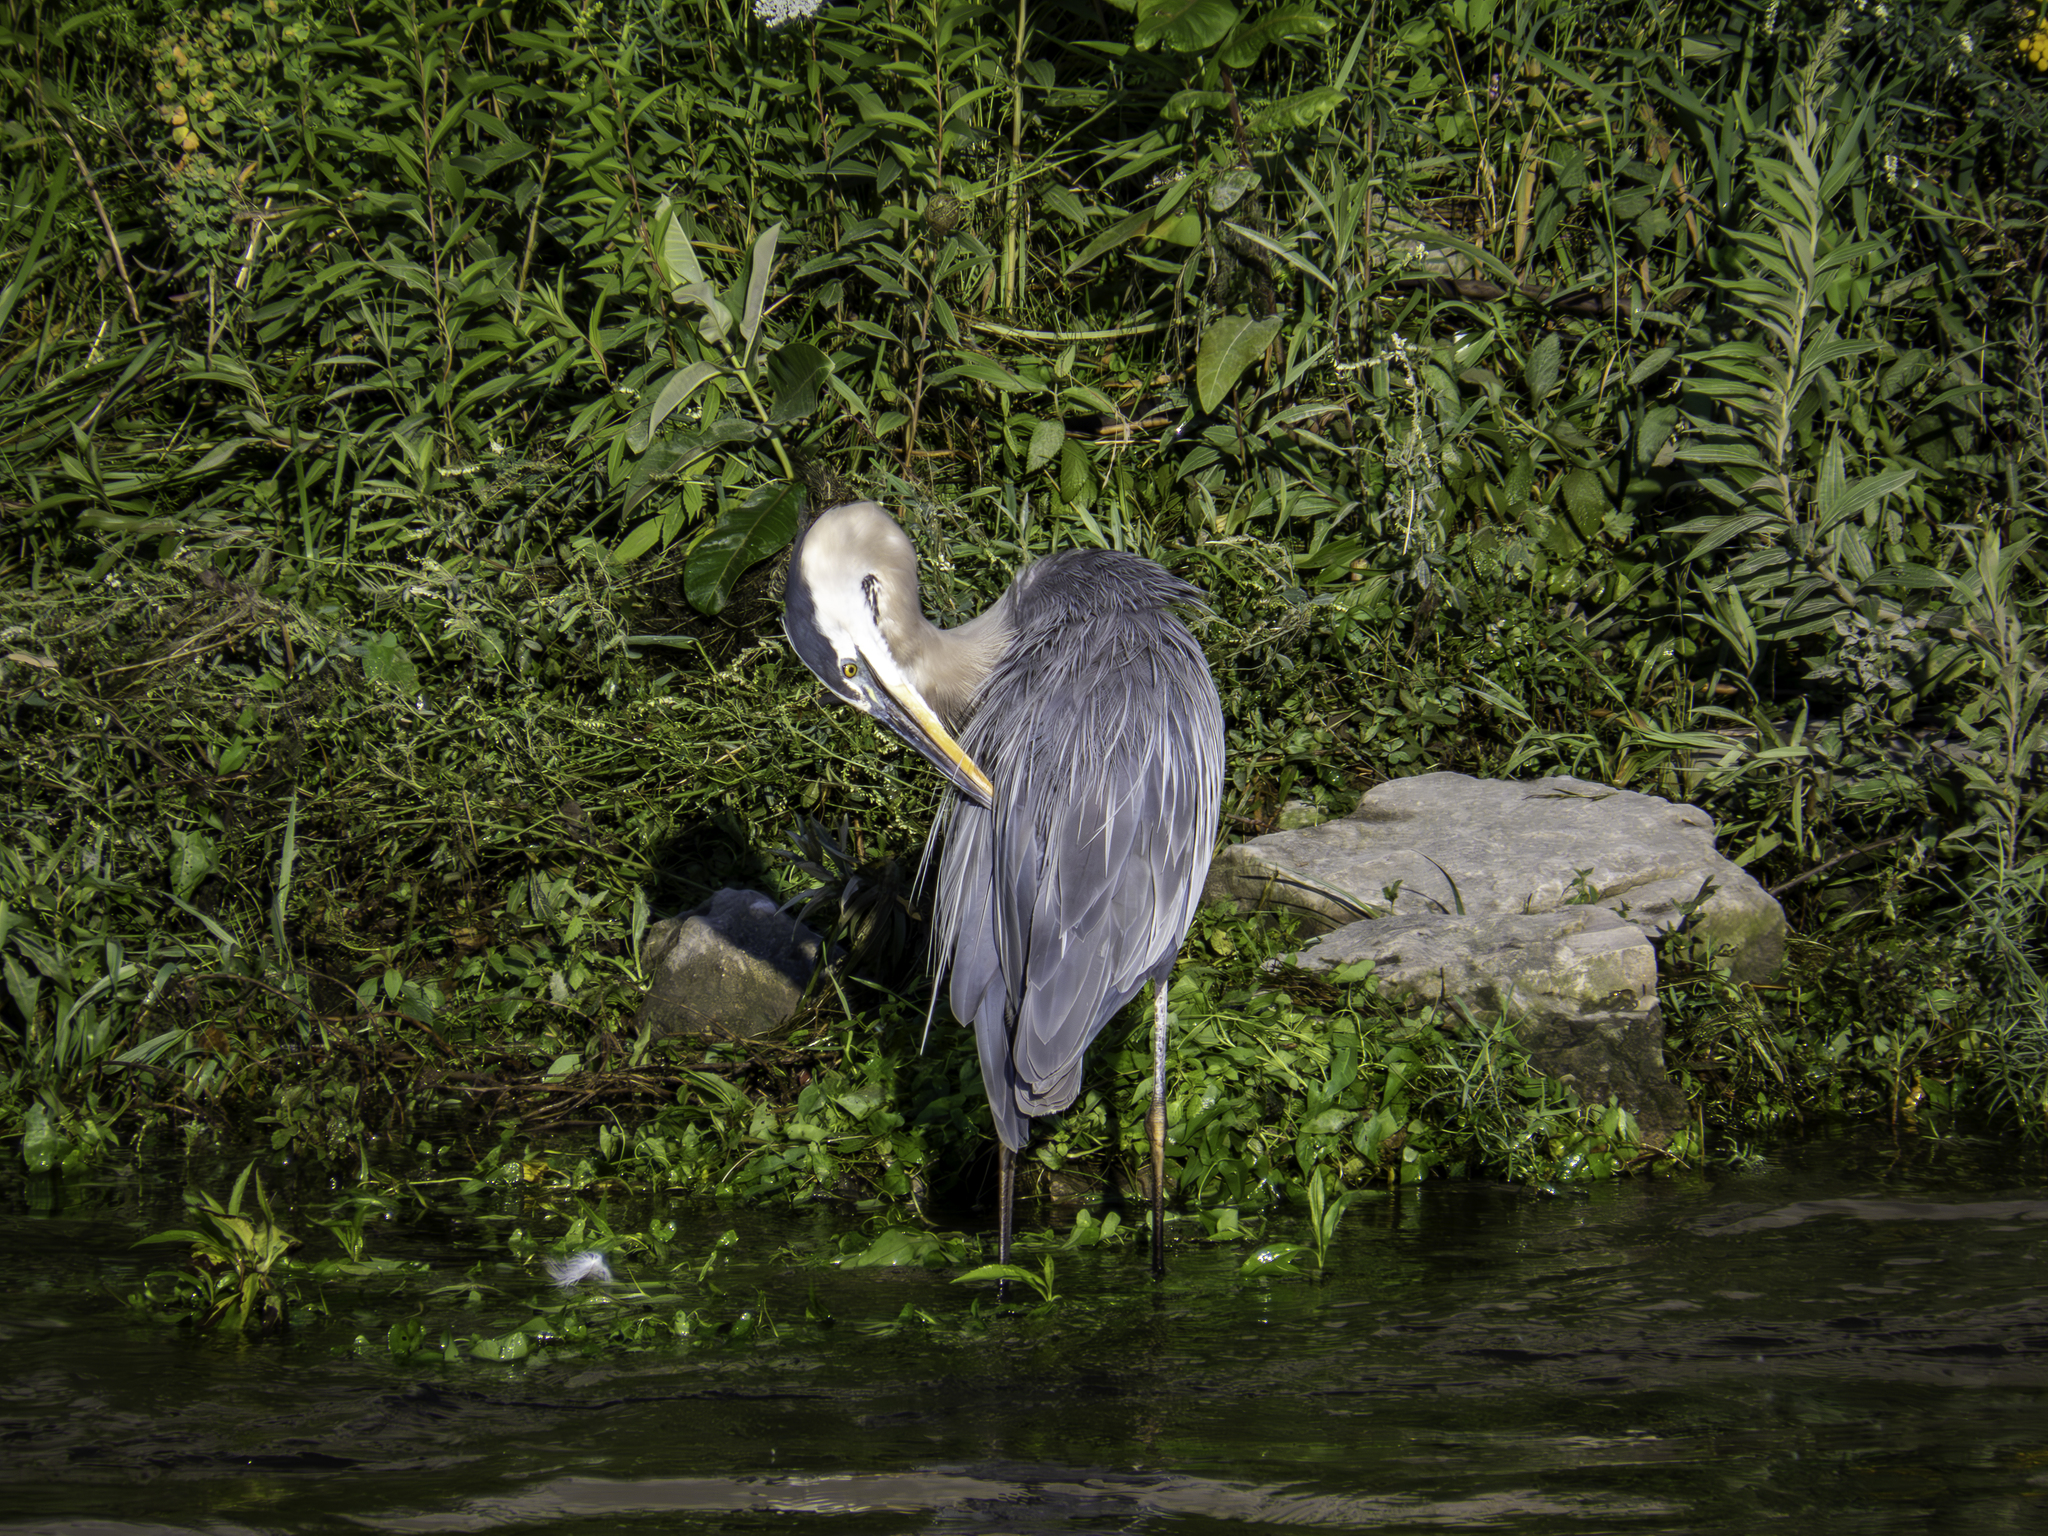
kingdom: Animalia
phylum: Chordata
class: Aves
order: Pelecaniformes
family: Ardeidae
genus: Ardea
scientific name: Ardea herodias
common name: Great blue heron
